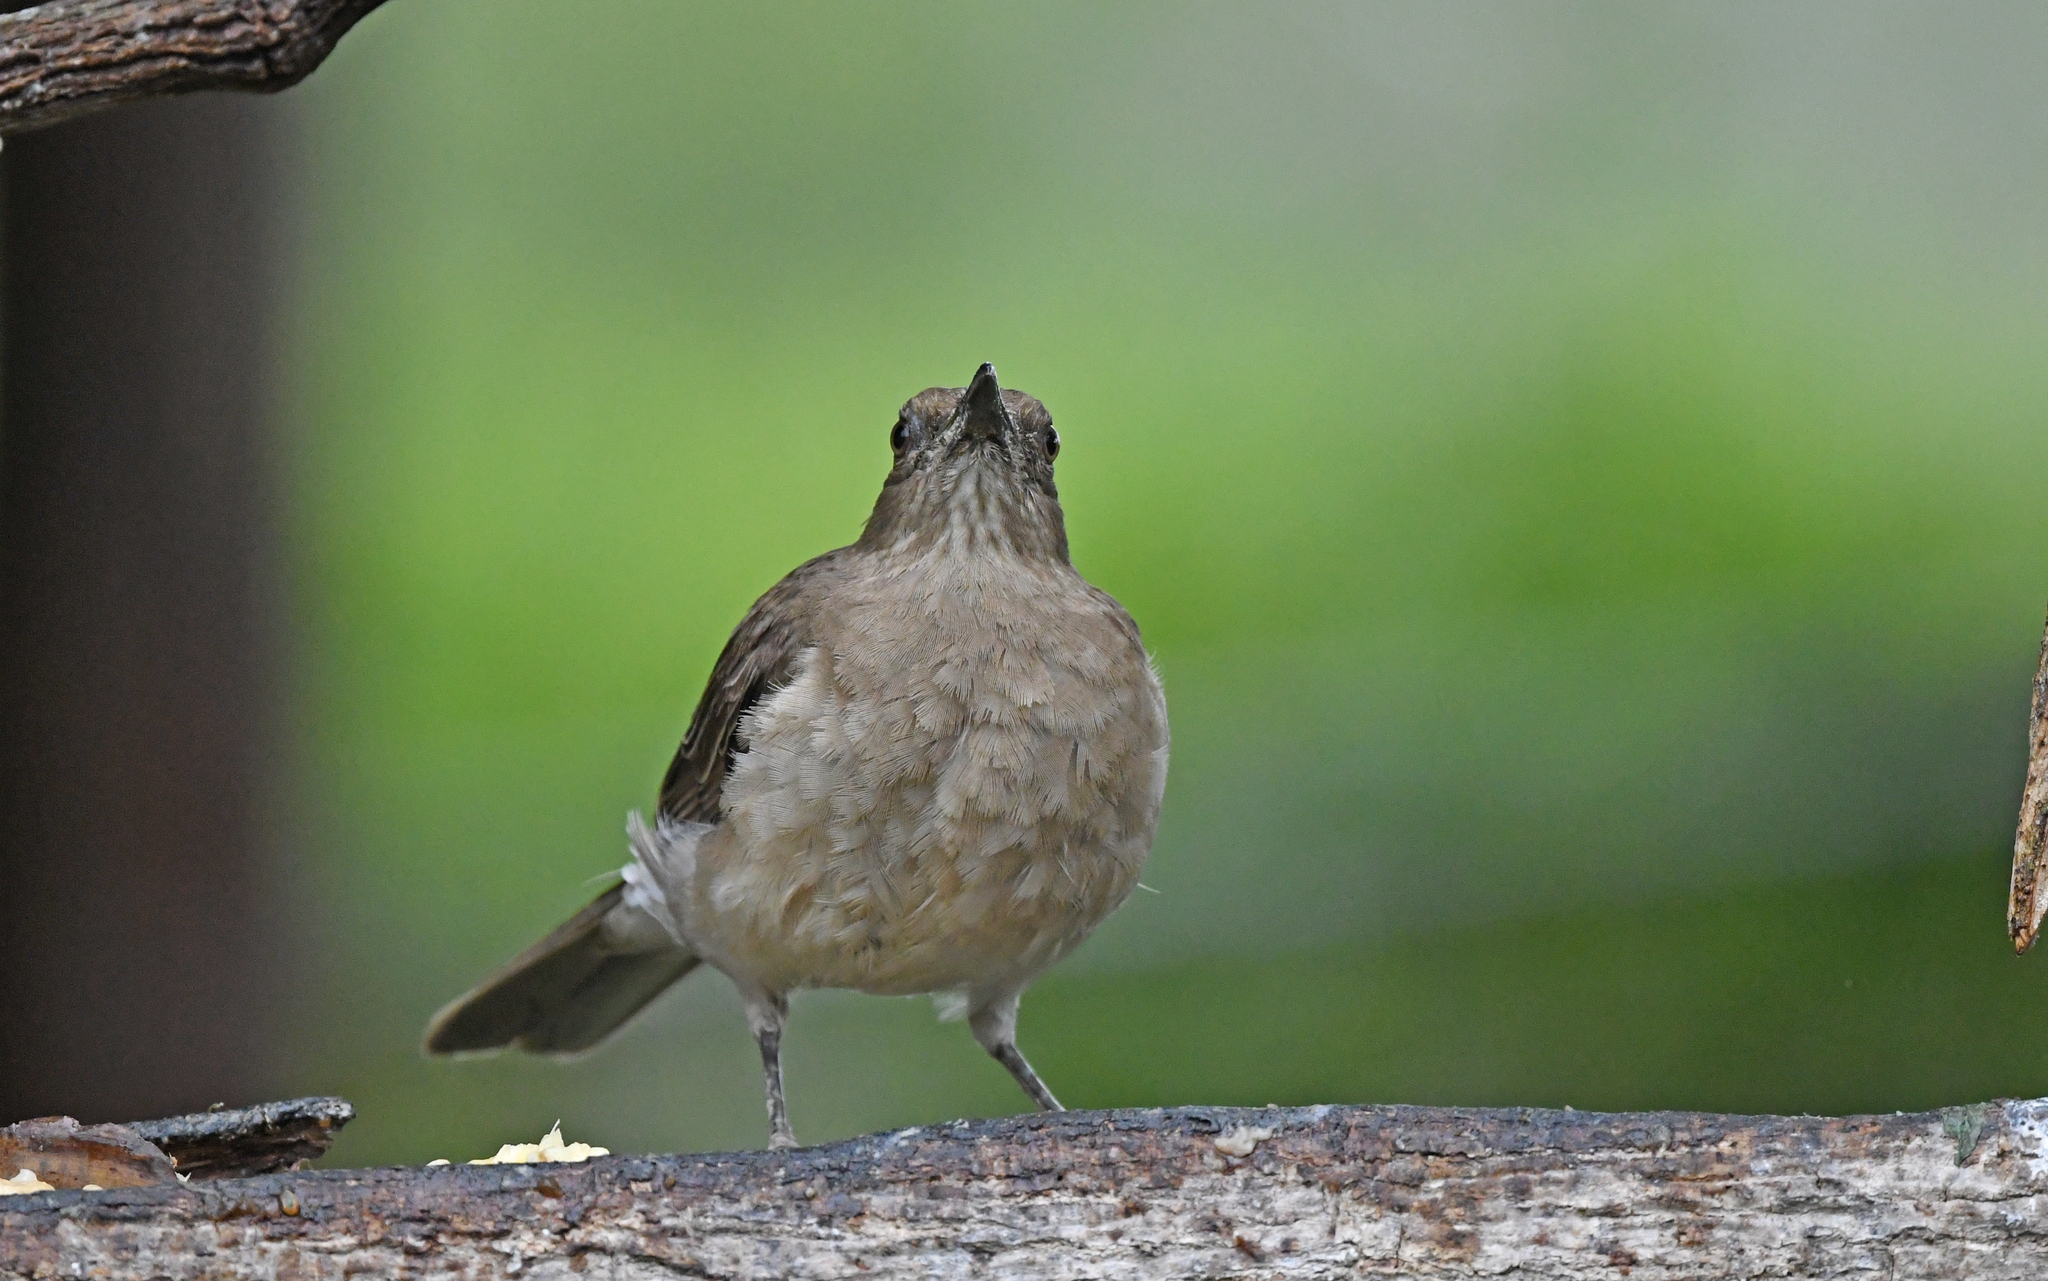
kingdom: Animalia
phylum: Chordata
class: Aves
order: Passeriformes
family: Turdidae
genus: Turdus
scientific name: Turdus ignobilis
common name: Black-billed thrush
